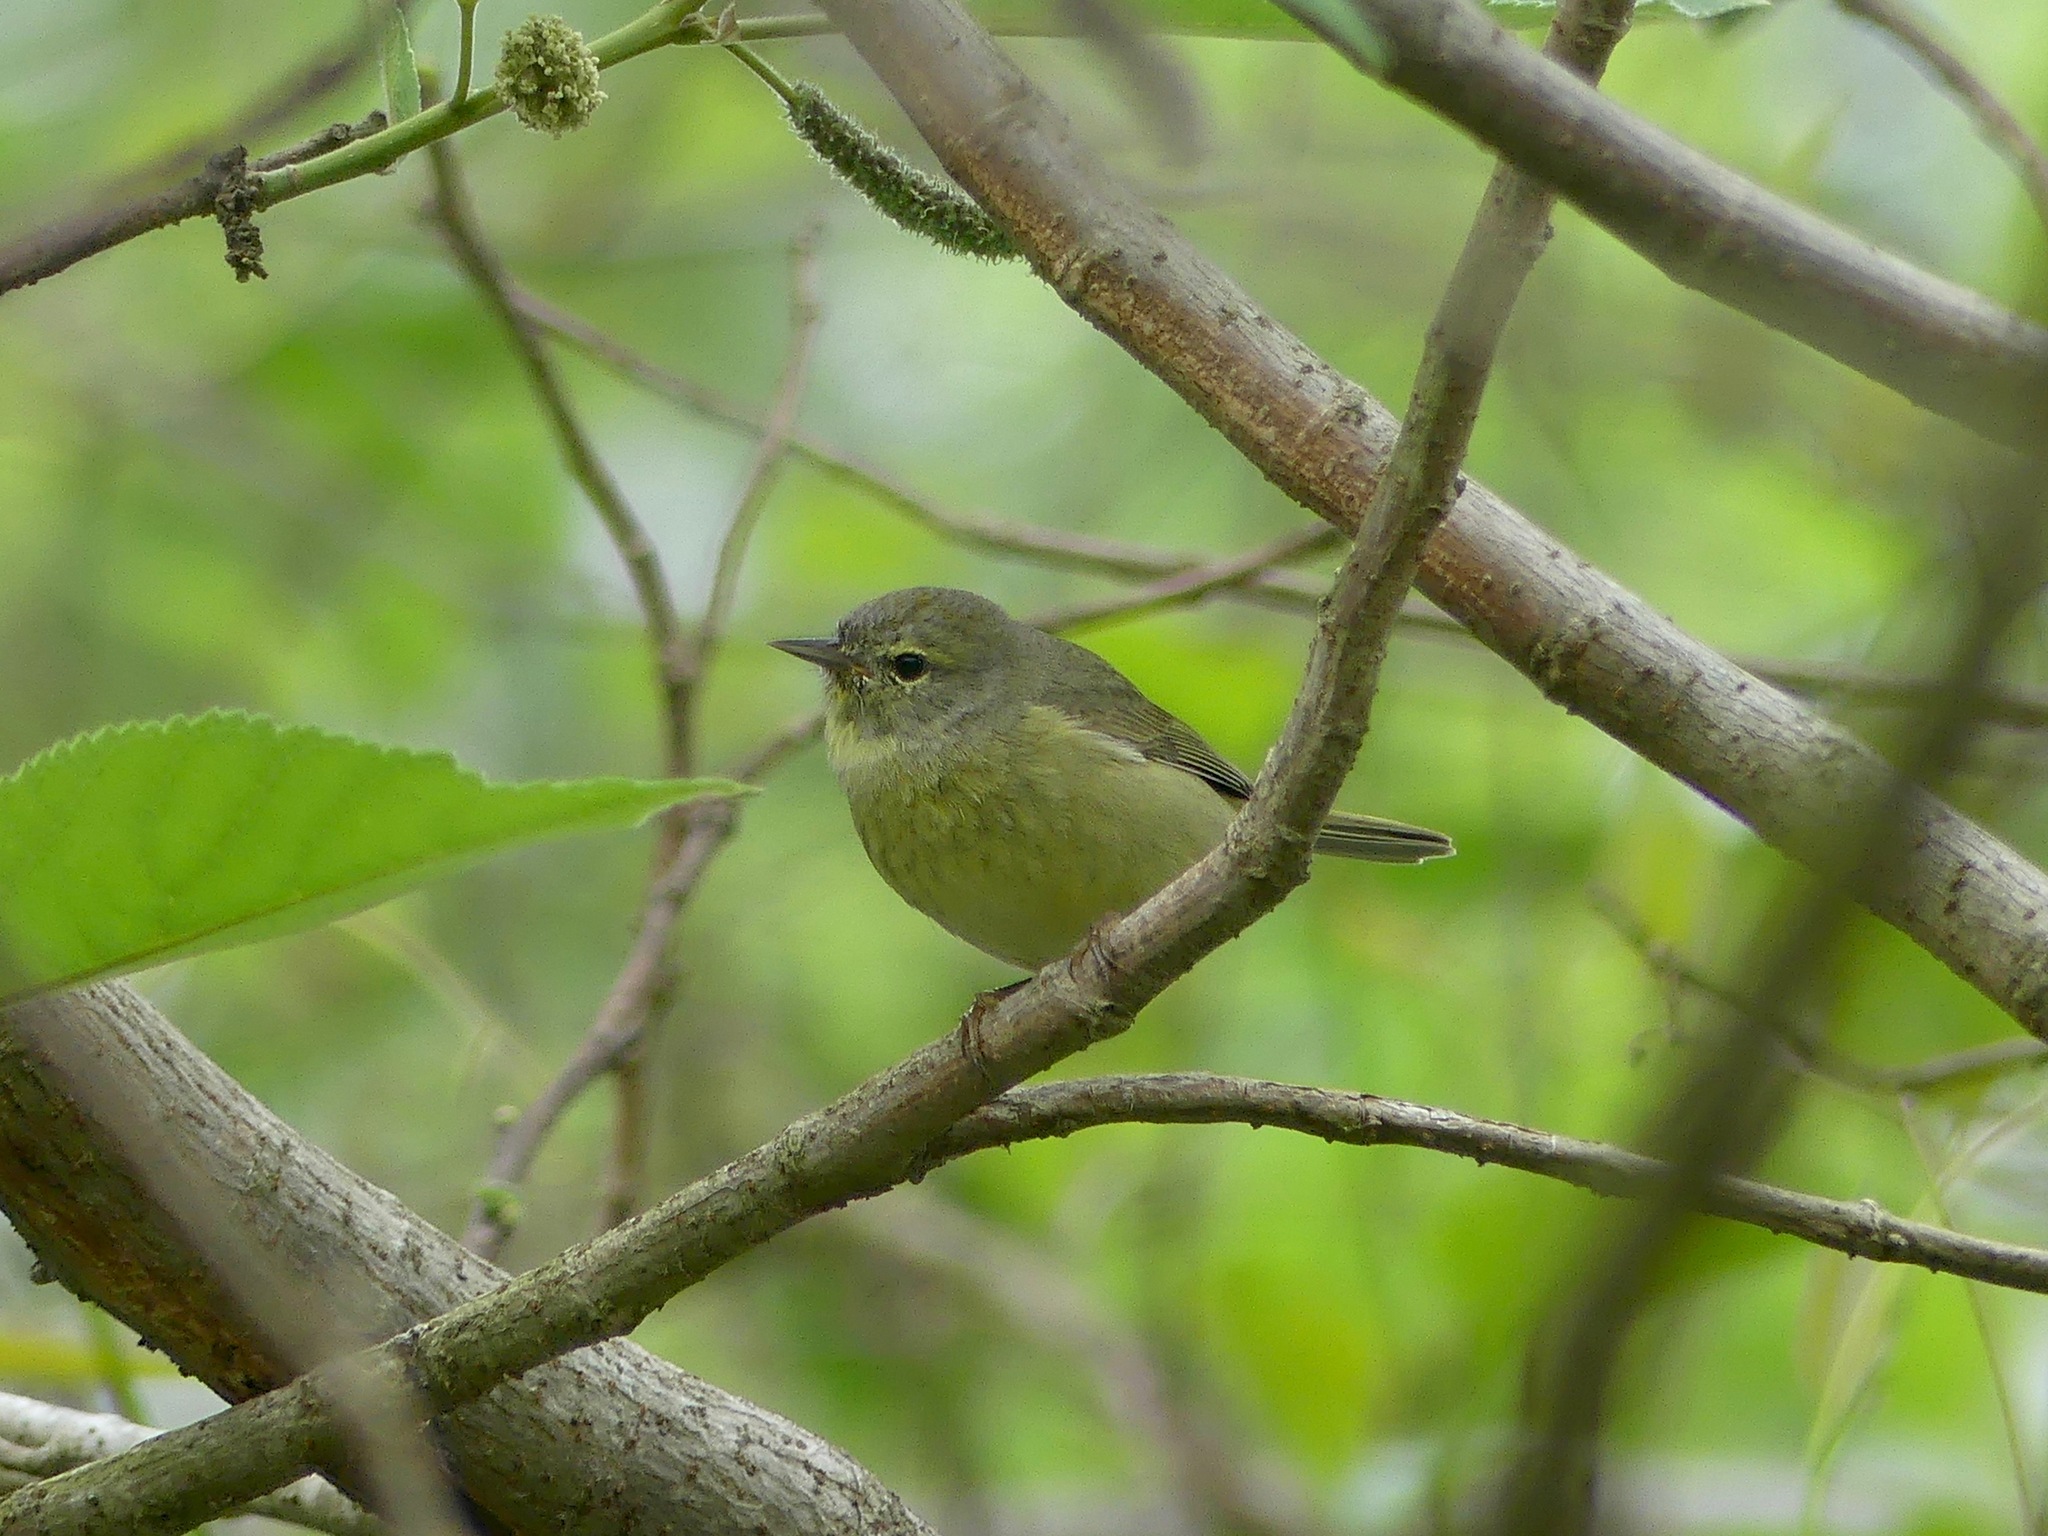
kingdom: Animalia
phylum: Chordata
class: Aves
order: Passeriformes
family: Parulidae
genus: Leiothlypis
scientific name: Leiothlypis celata
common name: Orange-crowned warbler
